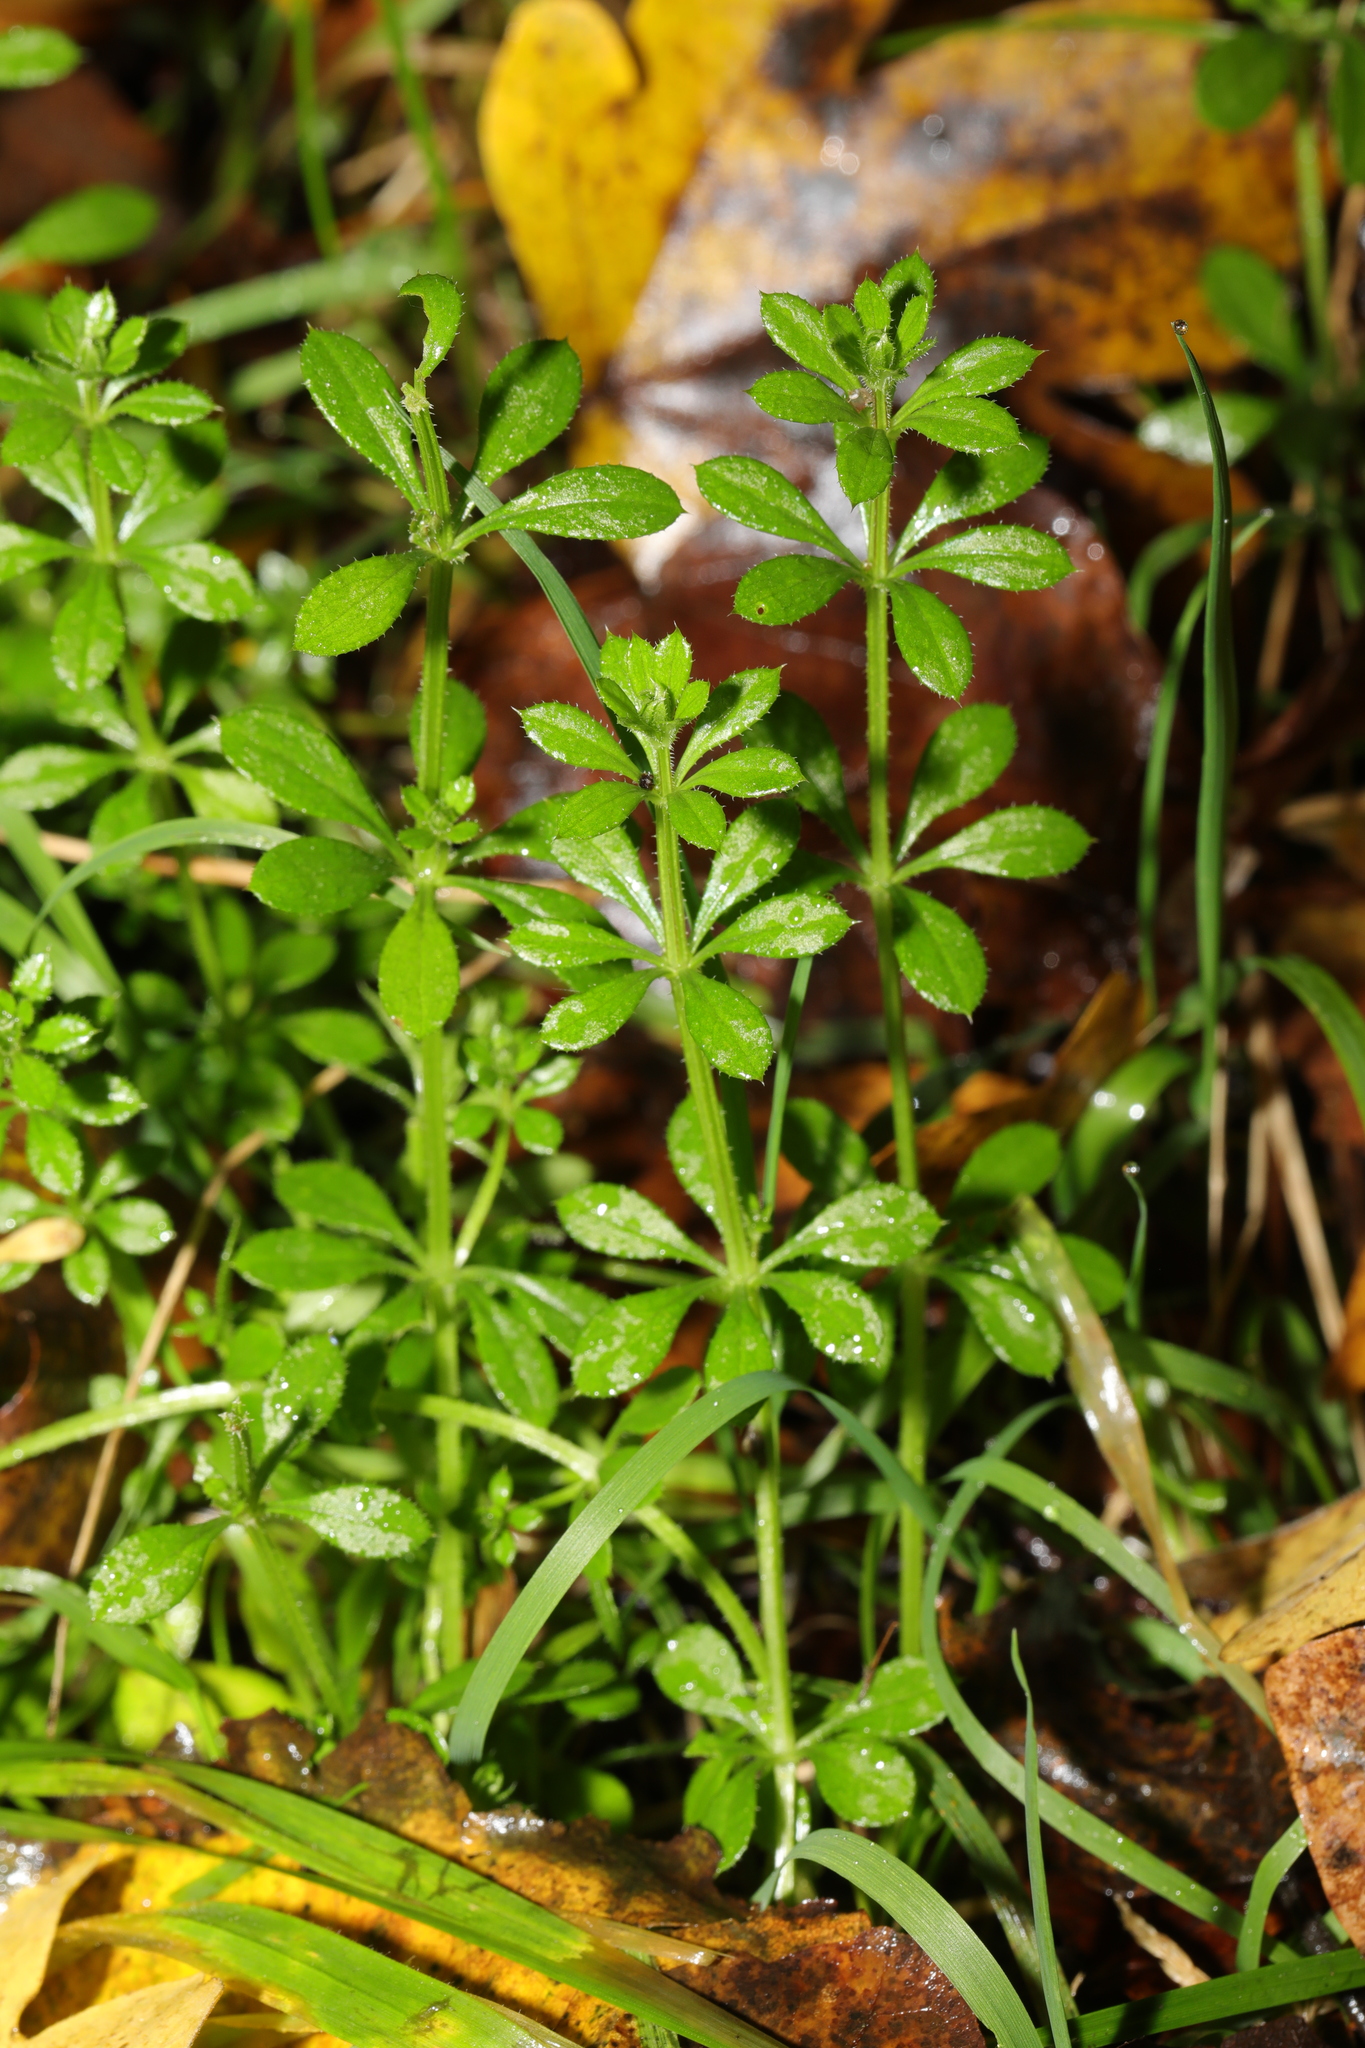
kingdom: Plantae
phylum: Tracheophyta
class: Magnoliopsida
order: Gentianales
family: Rubiaceae
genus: Galium
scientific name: Galium aparine
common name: Cleavers
